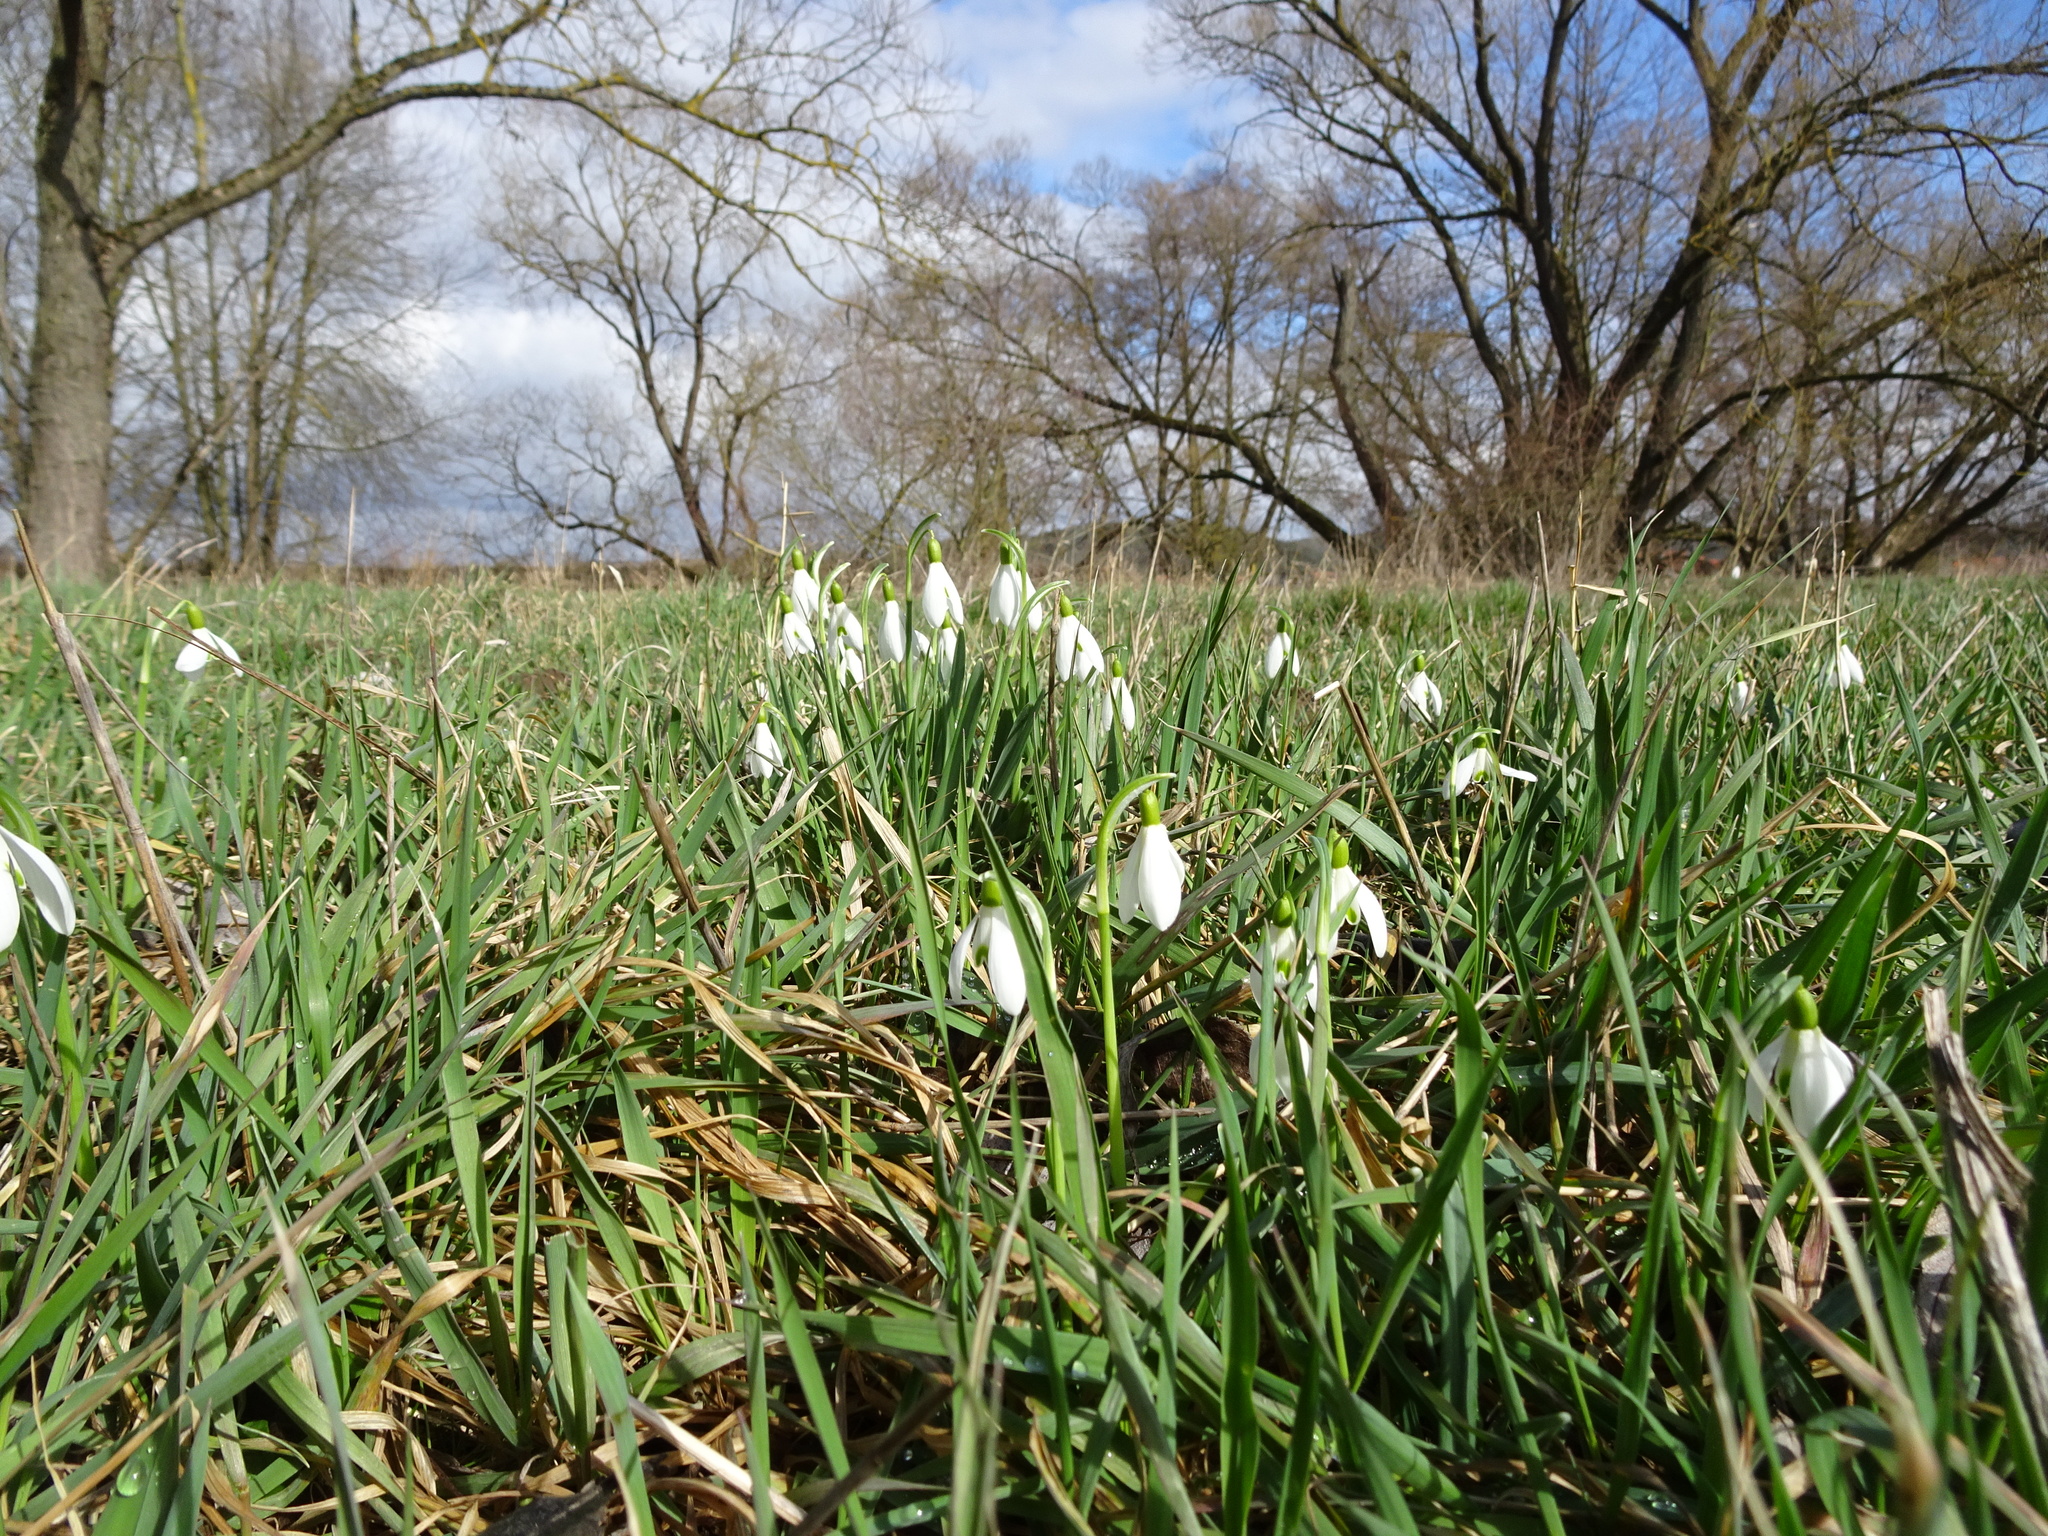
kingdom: Plantae
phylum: Tracheophyta
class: Liliopsida
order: Asparagales
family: Amaryllidaceae
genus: Galanthus
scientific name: Galanthus nivalis
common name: Snowdrop
